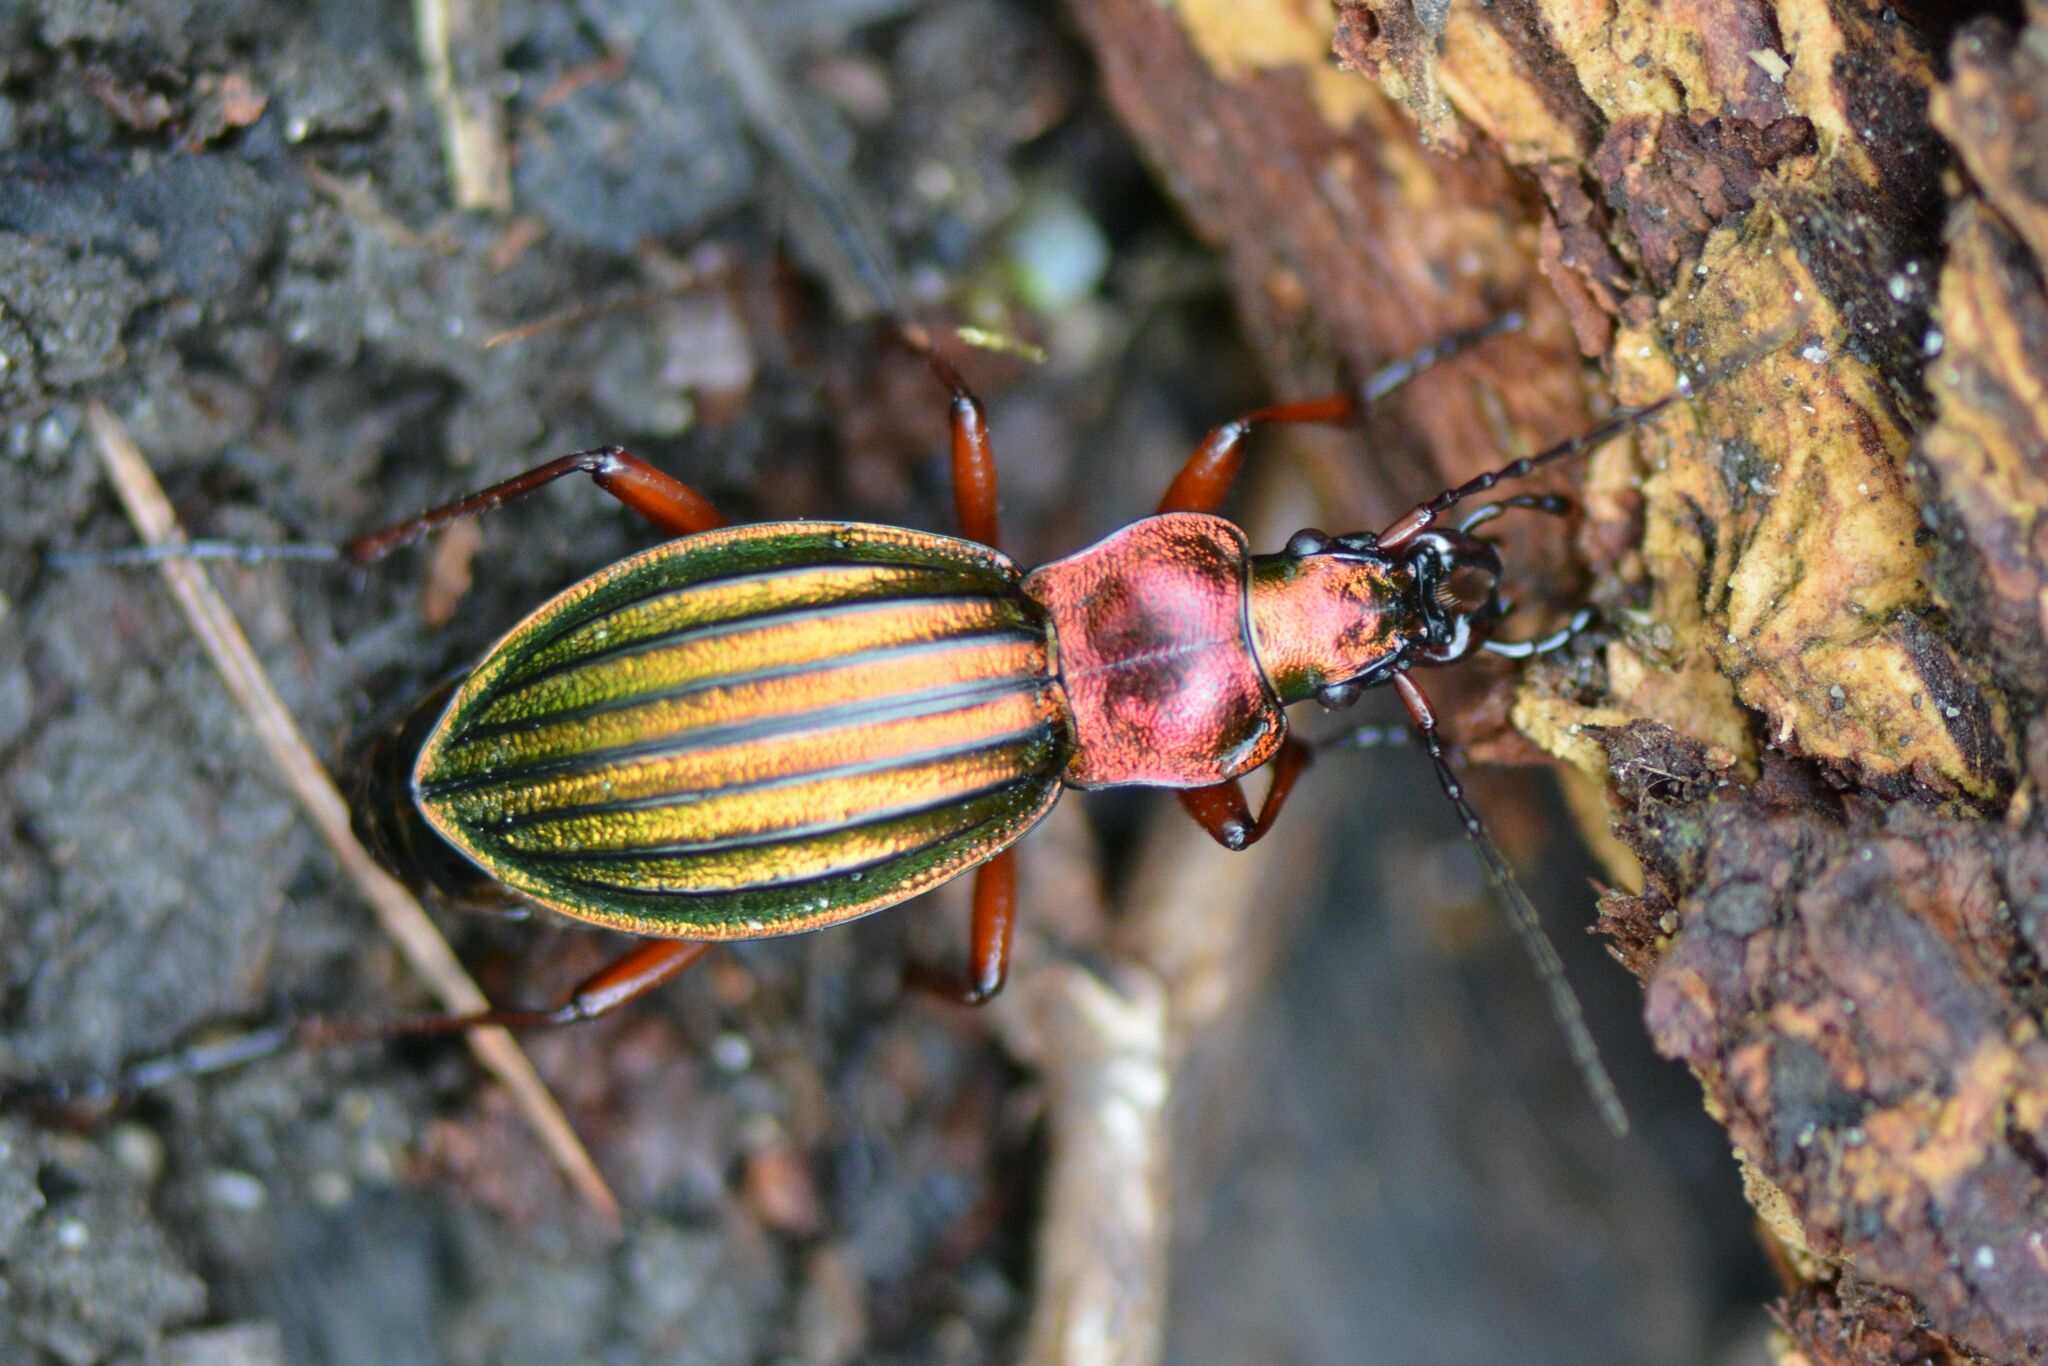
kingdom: Animalia
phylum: Arthropoda
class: Insecta
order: Coleoptera
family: Carabidae
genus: Carabus
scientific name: Carabus auronitens
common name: Carabus auronitens
